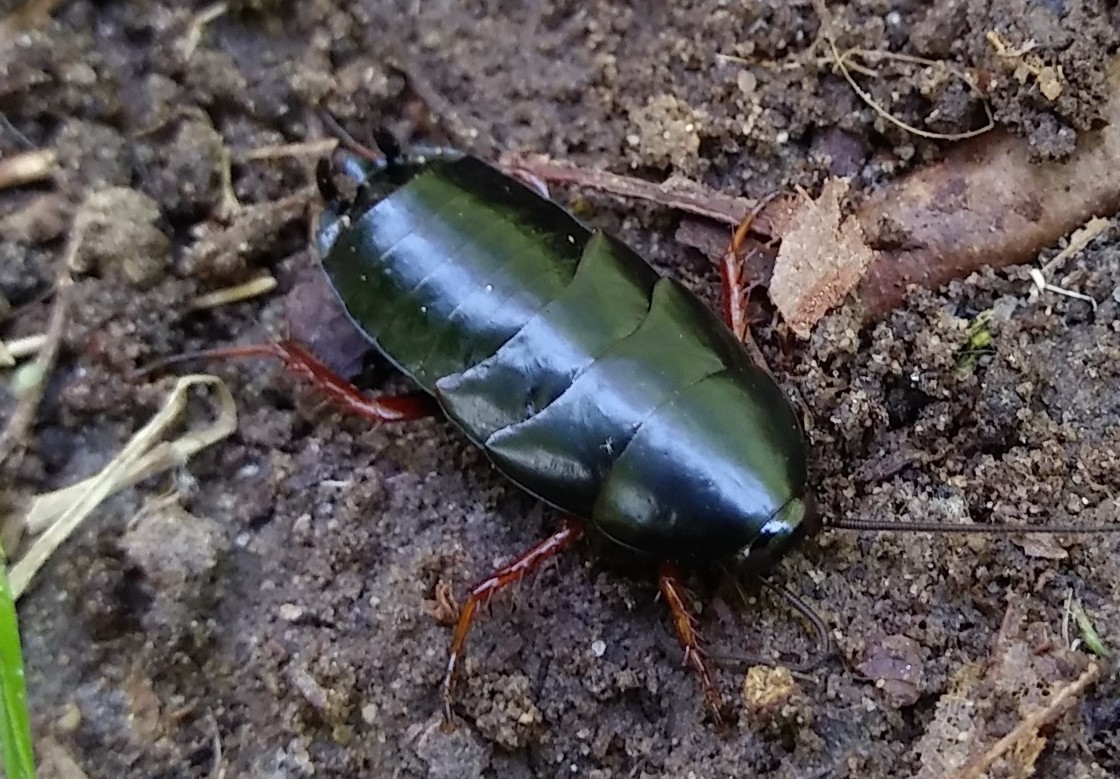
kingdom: Animalia
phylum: Arthropoda
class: Insecta
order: Blattodea
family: Ectobiidae
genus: Ischnoptera
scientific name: Ischnoptera deropeltiformis
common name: Dark wood cockroach
